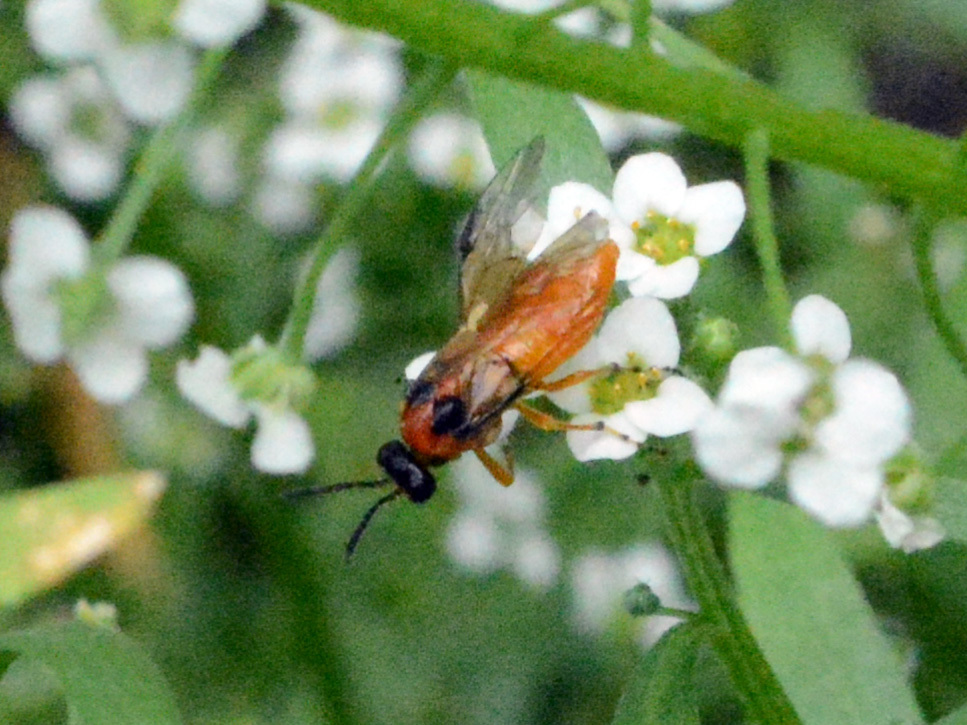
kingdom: Animalia
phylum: Arthropoda
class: Insecta
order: Hymenoptera
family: Tenthredinidae
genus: Athalia
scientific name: Athalia rosae
